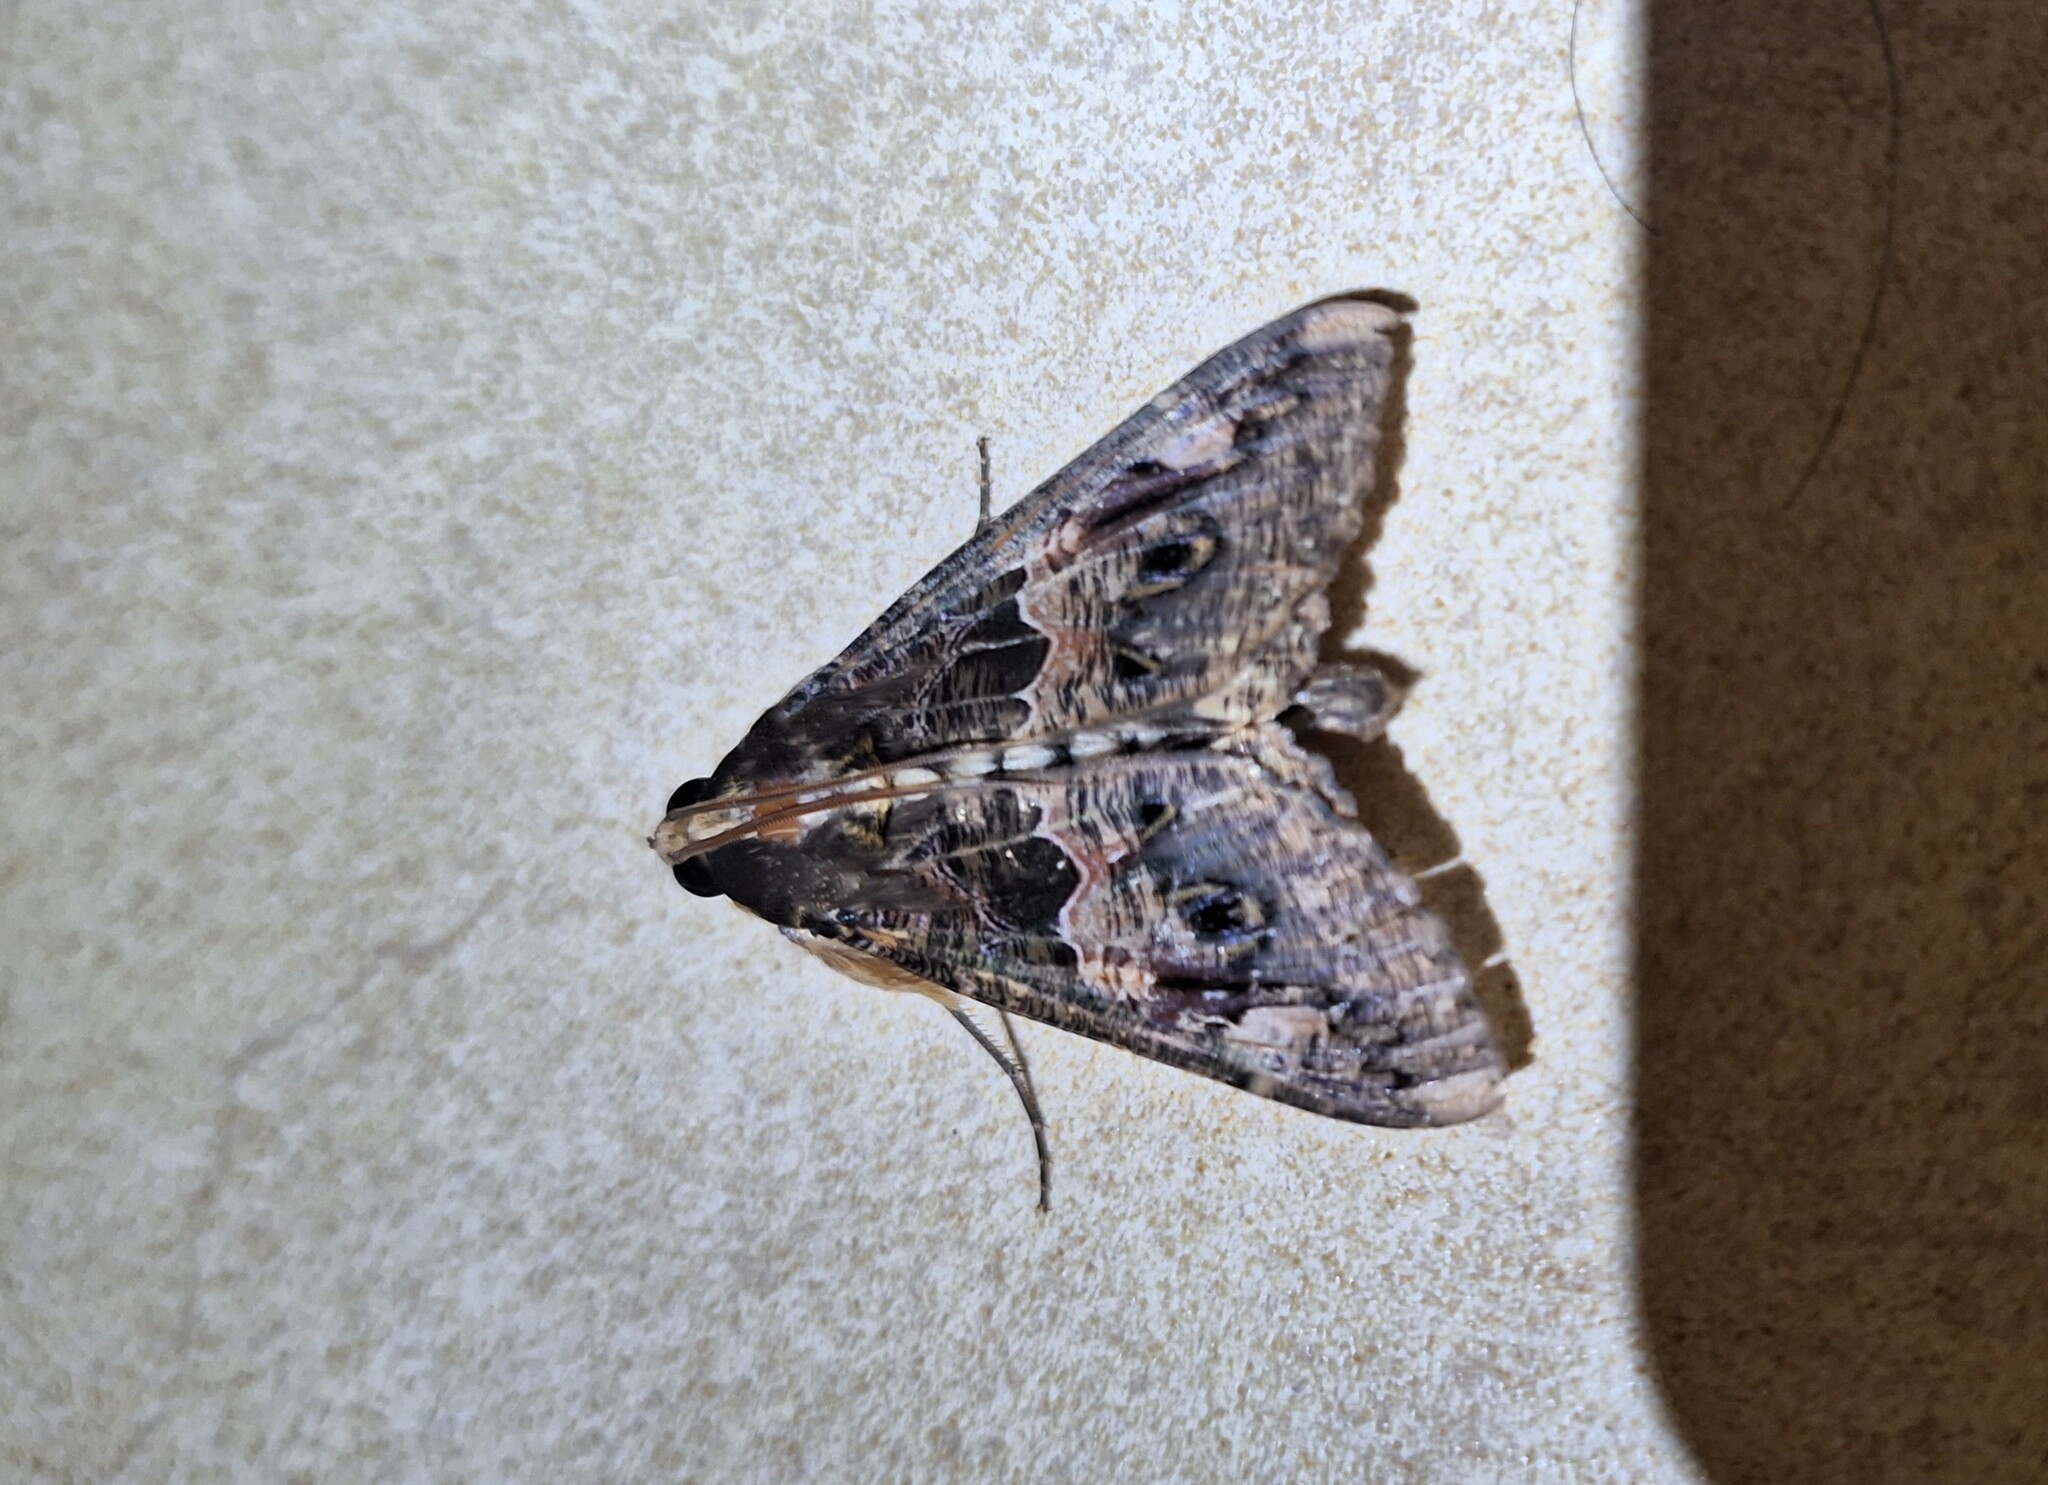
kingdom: Animalia
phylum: Arthropoda
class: Insecta
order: Lepidoptera
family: Erebidae
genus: Sphingomorpha
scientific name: Sphingomorpha chlorea
